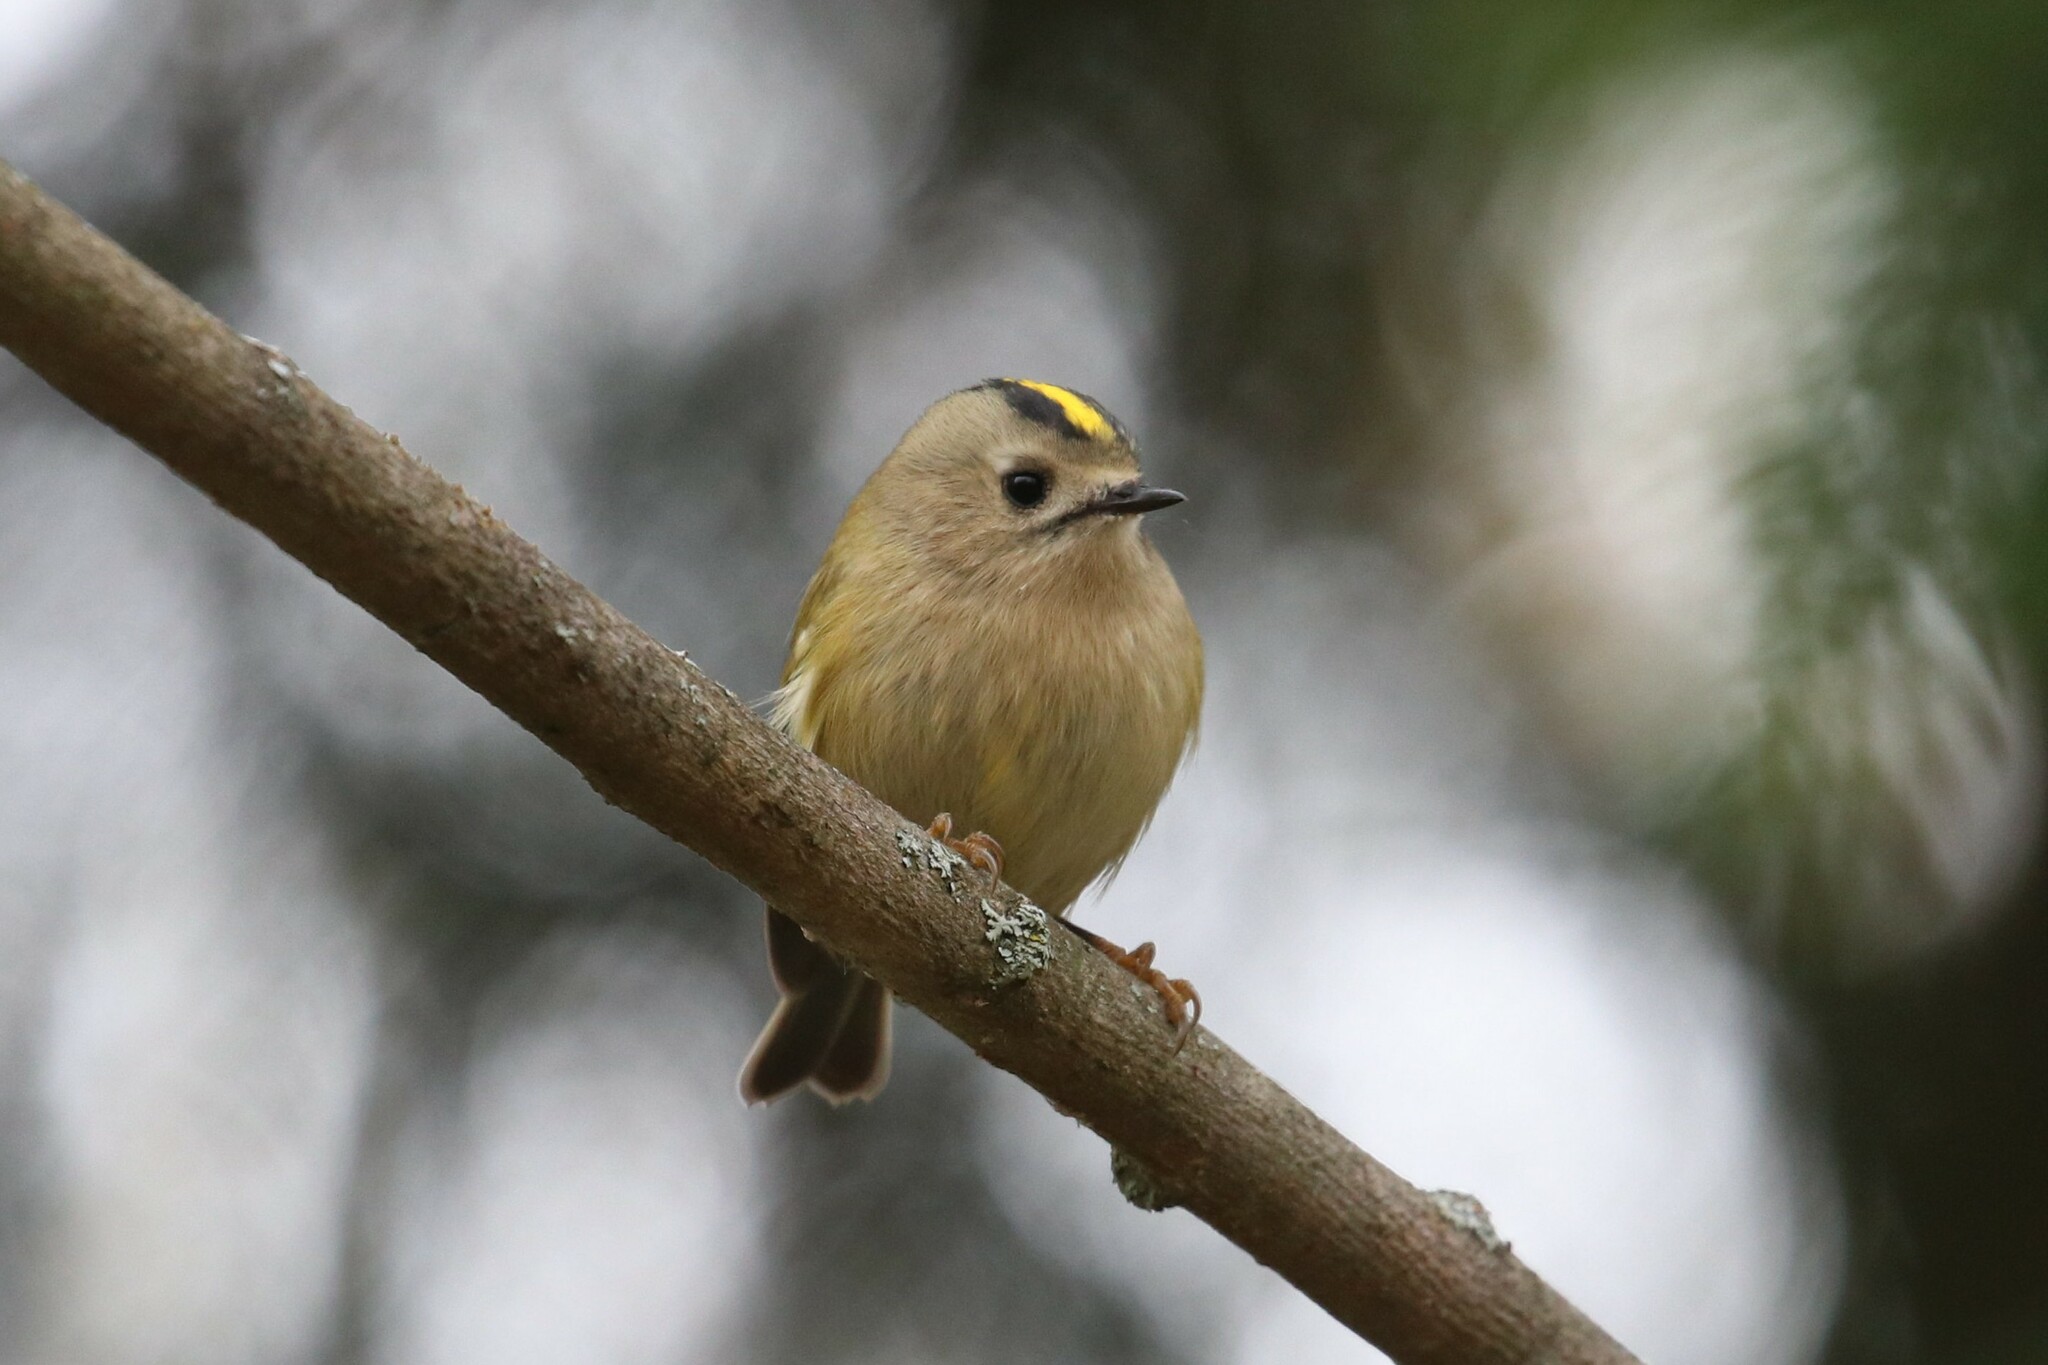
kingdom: Animalia
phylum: Chordata
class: Aves
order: Passeriformes
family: Regulidae
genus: Regulus
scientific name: Regulus regulus
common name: Goldcrest
